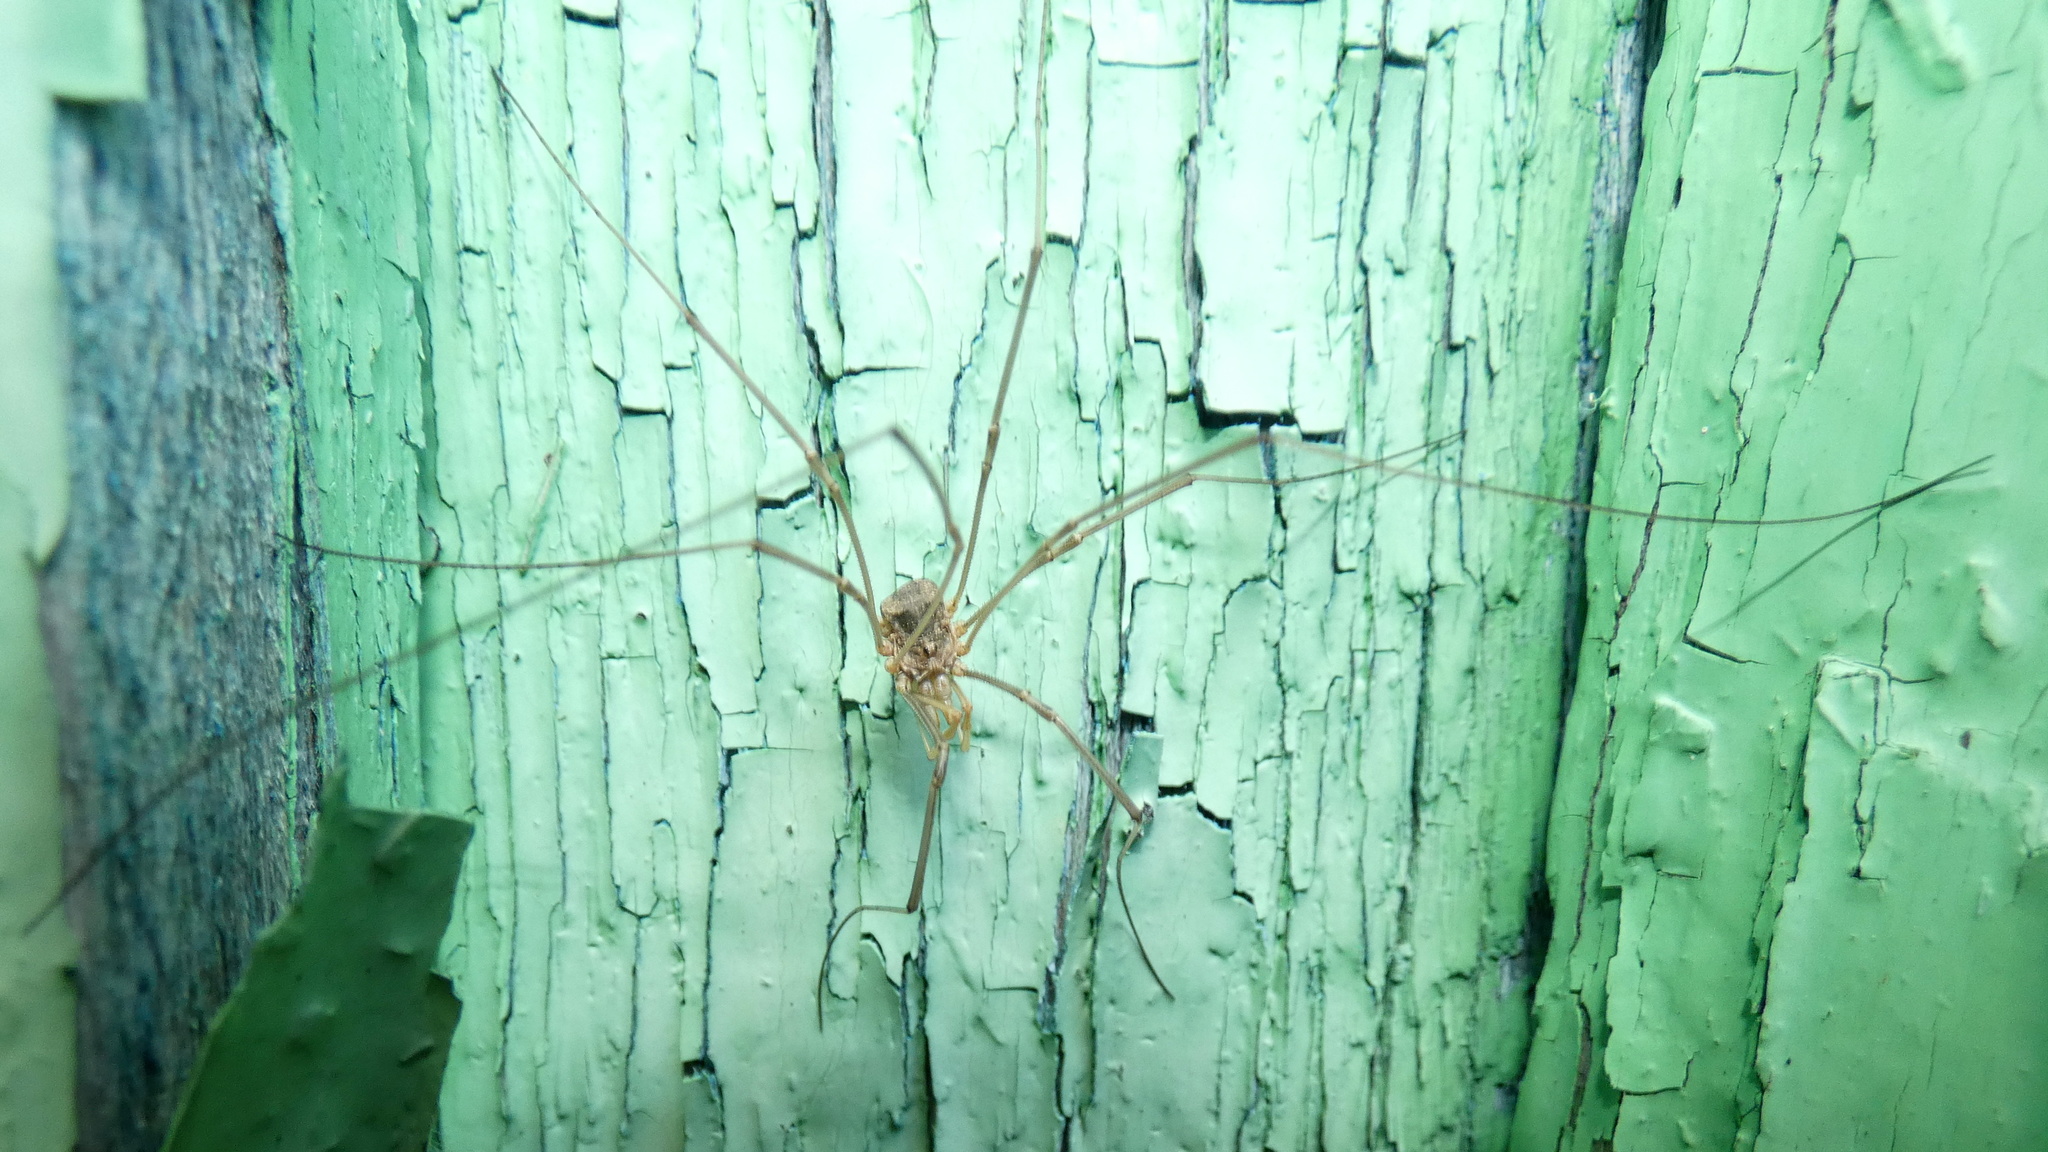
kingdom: Animalia
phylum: Arthropoda
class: Arachnida
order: Opiliones
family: Phalangiidae
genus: Phalangium
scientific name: Phalangium opilio
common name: Daddy longleg
